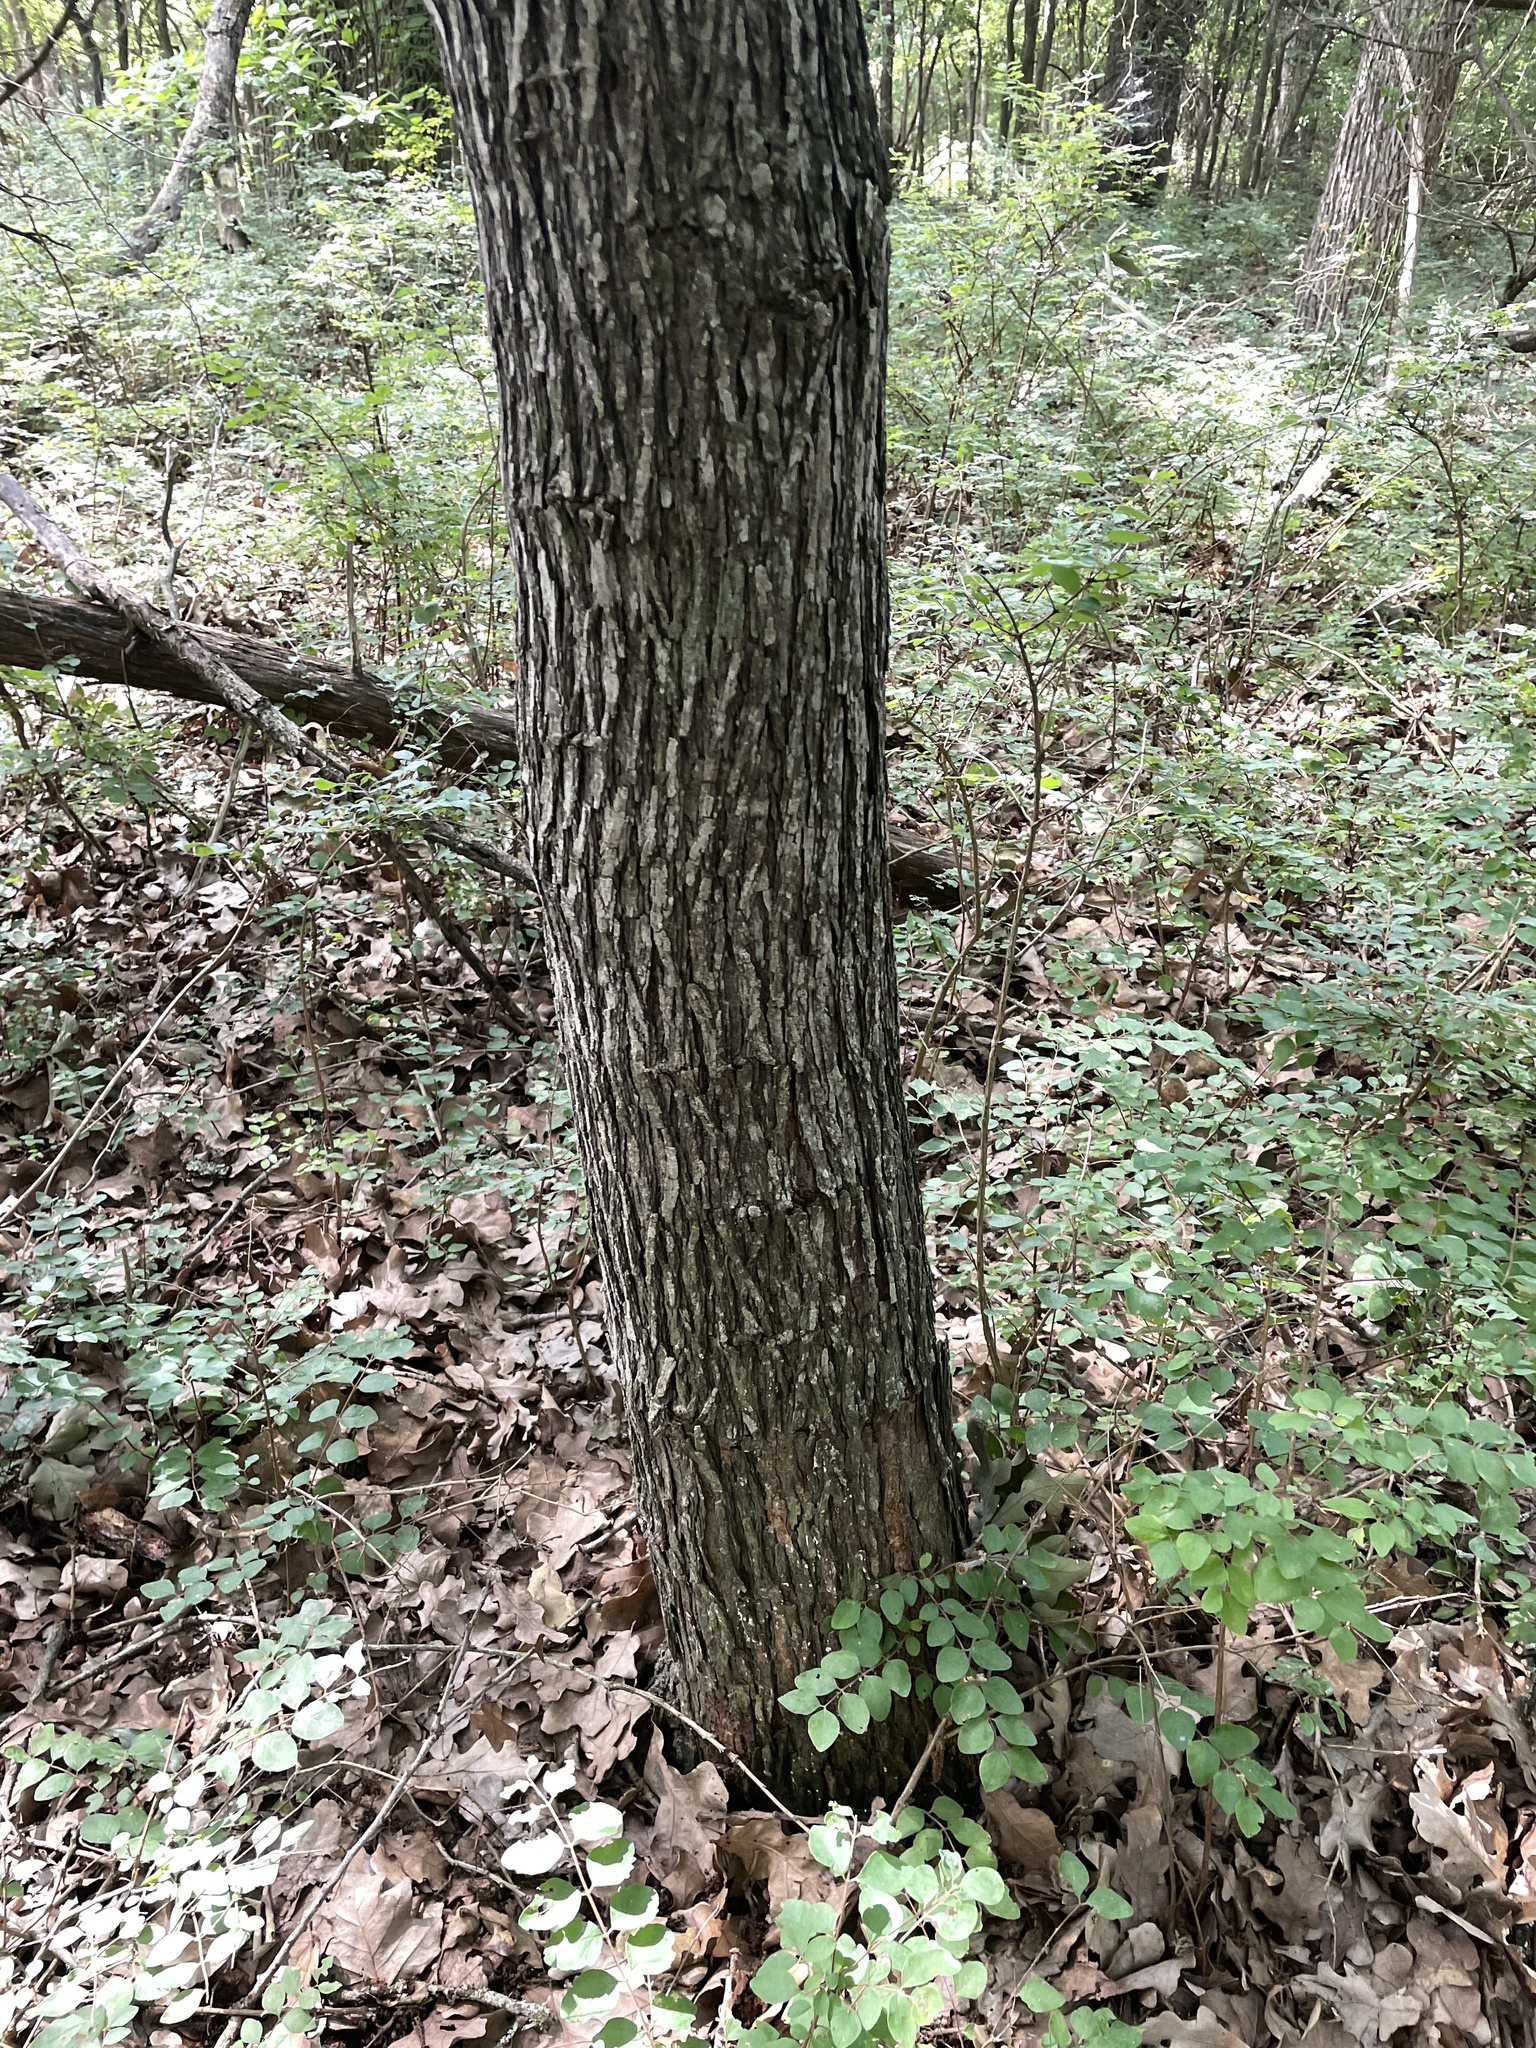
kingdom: Plantae
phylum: Tracheophyta
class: Magnoliopsida
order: Rosales
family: Moraceae
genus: Morus
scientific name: Morus rubra
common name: Red mulberry
